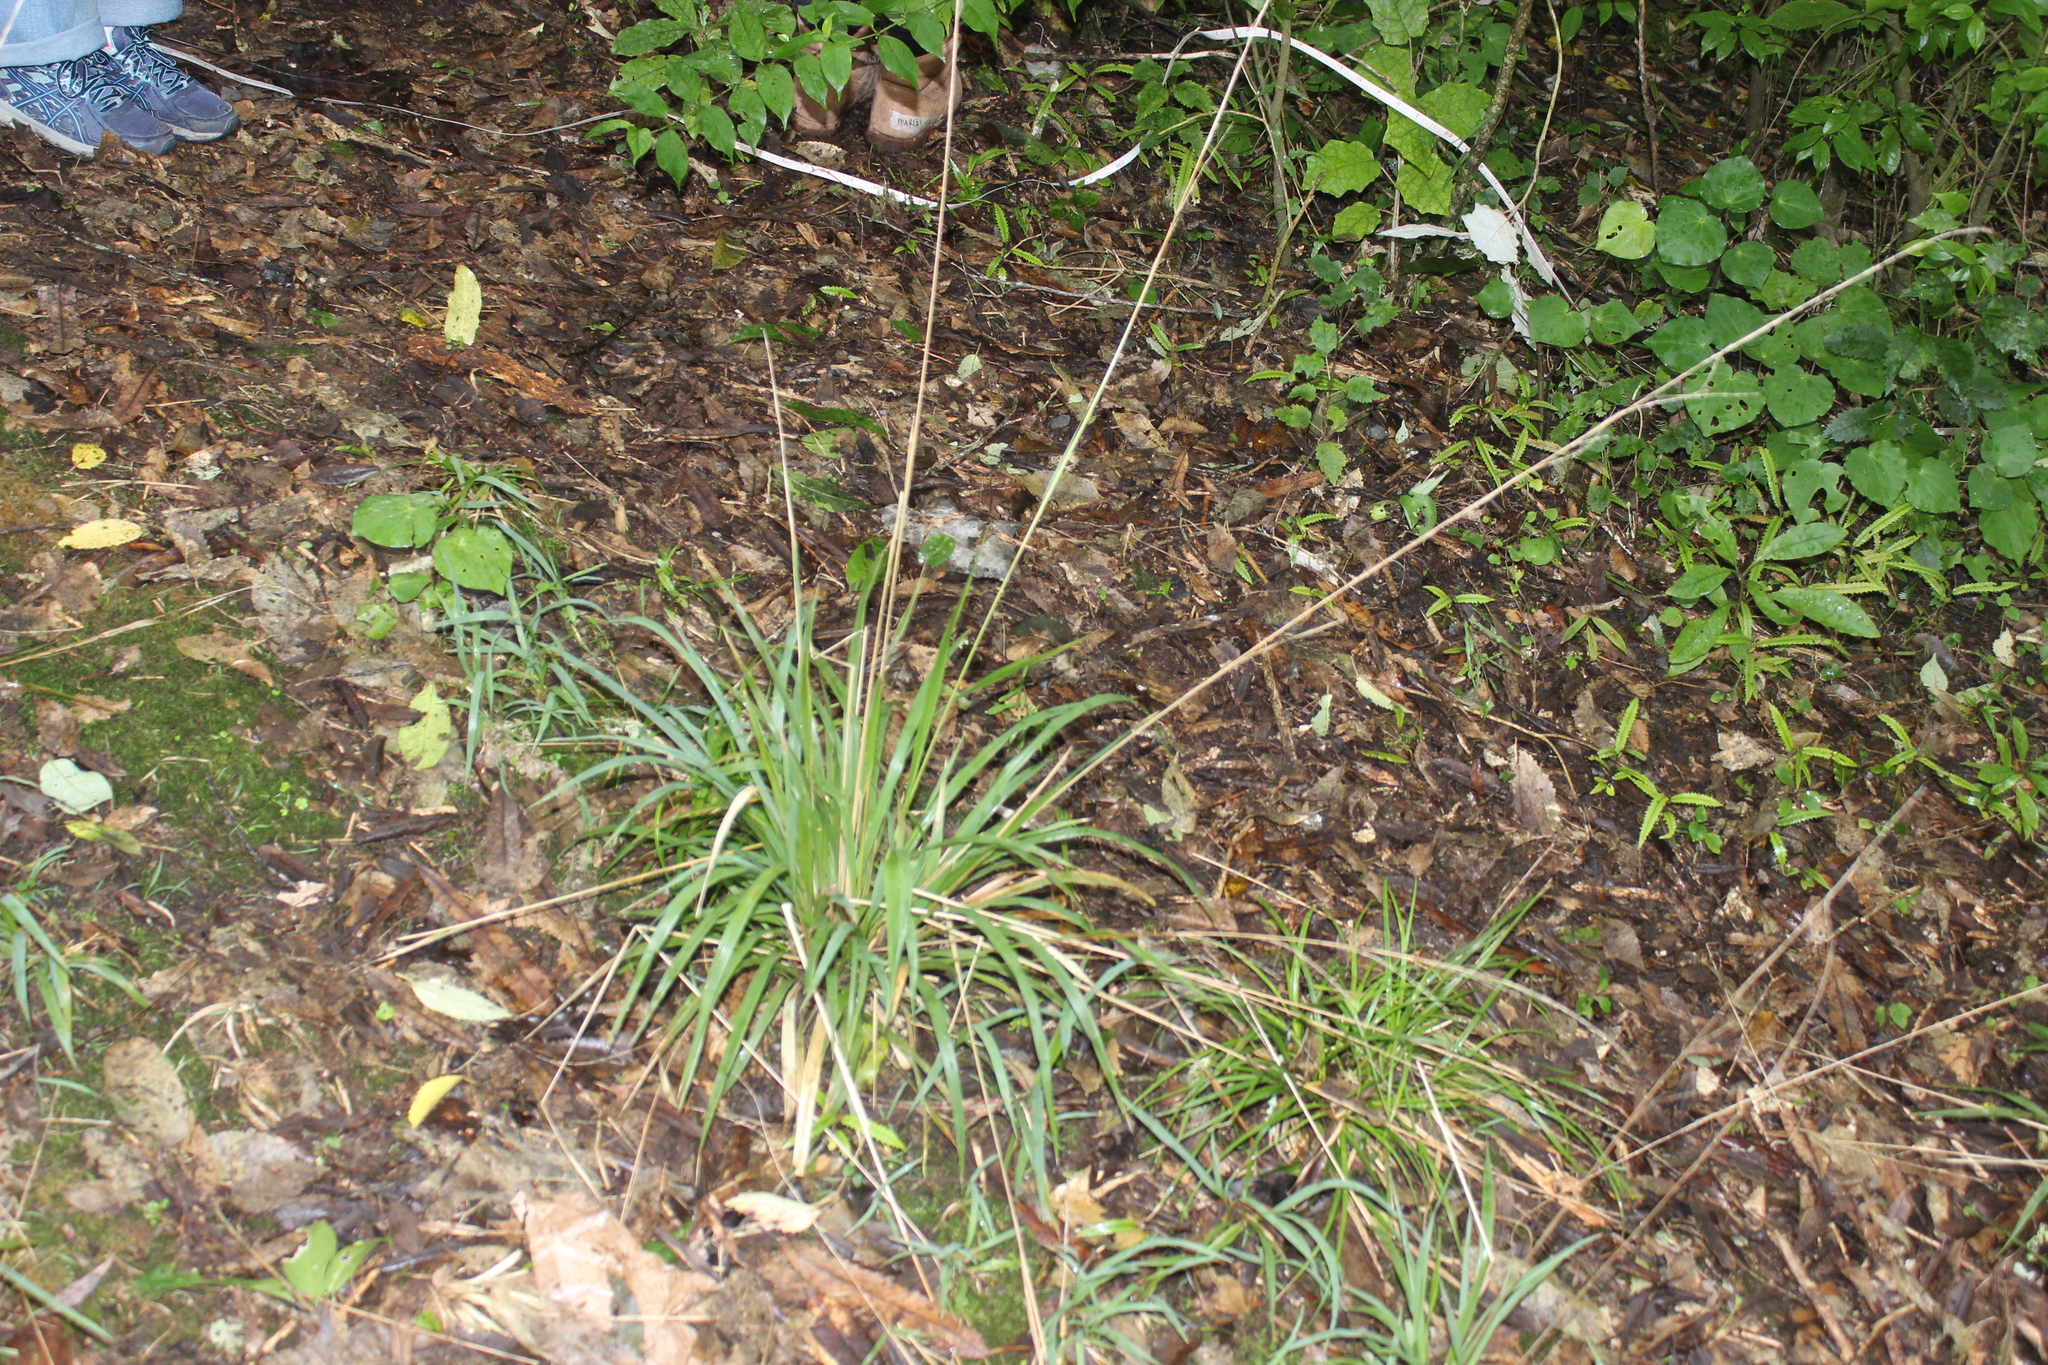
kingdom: Plantae
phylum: Tracheophyta
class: Liliopsida
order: Poales
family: Poaceae
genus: Ehrharta
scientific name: Ehrharta diplax
